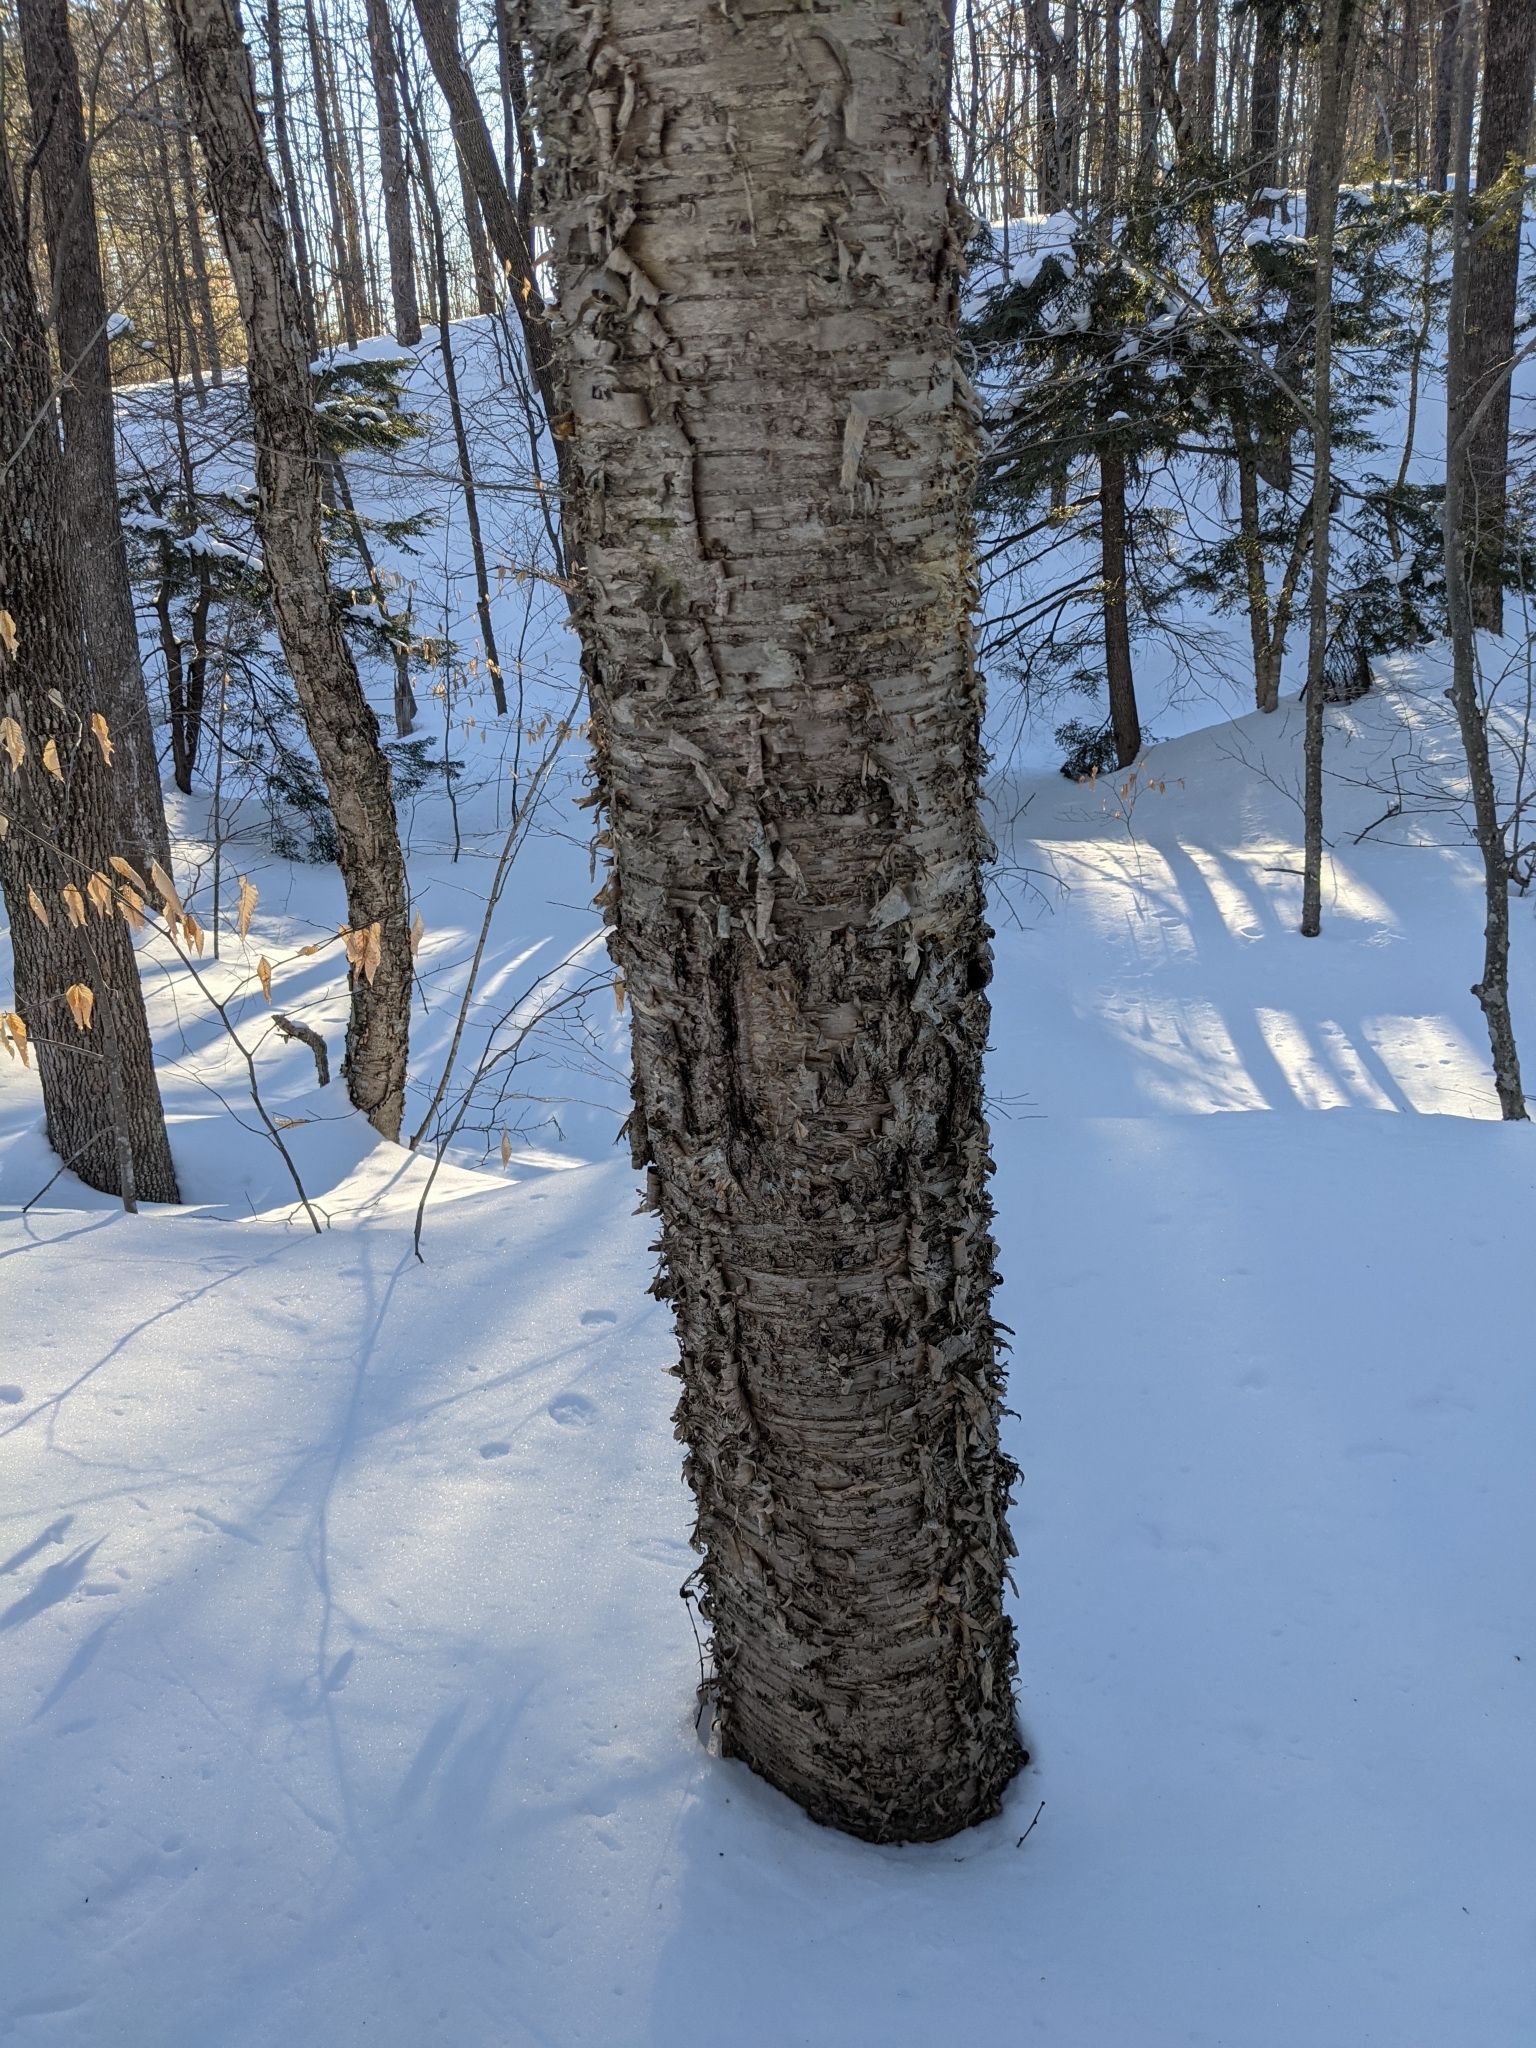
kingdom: Plantae
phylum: Tracheophyta
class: Magnoliopsida
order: Fagales
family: Betulaceae
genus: Betula
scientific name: Betula alleghaniensis
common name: Yellow birch
